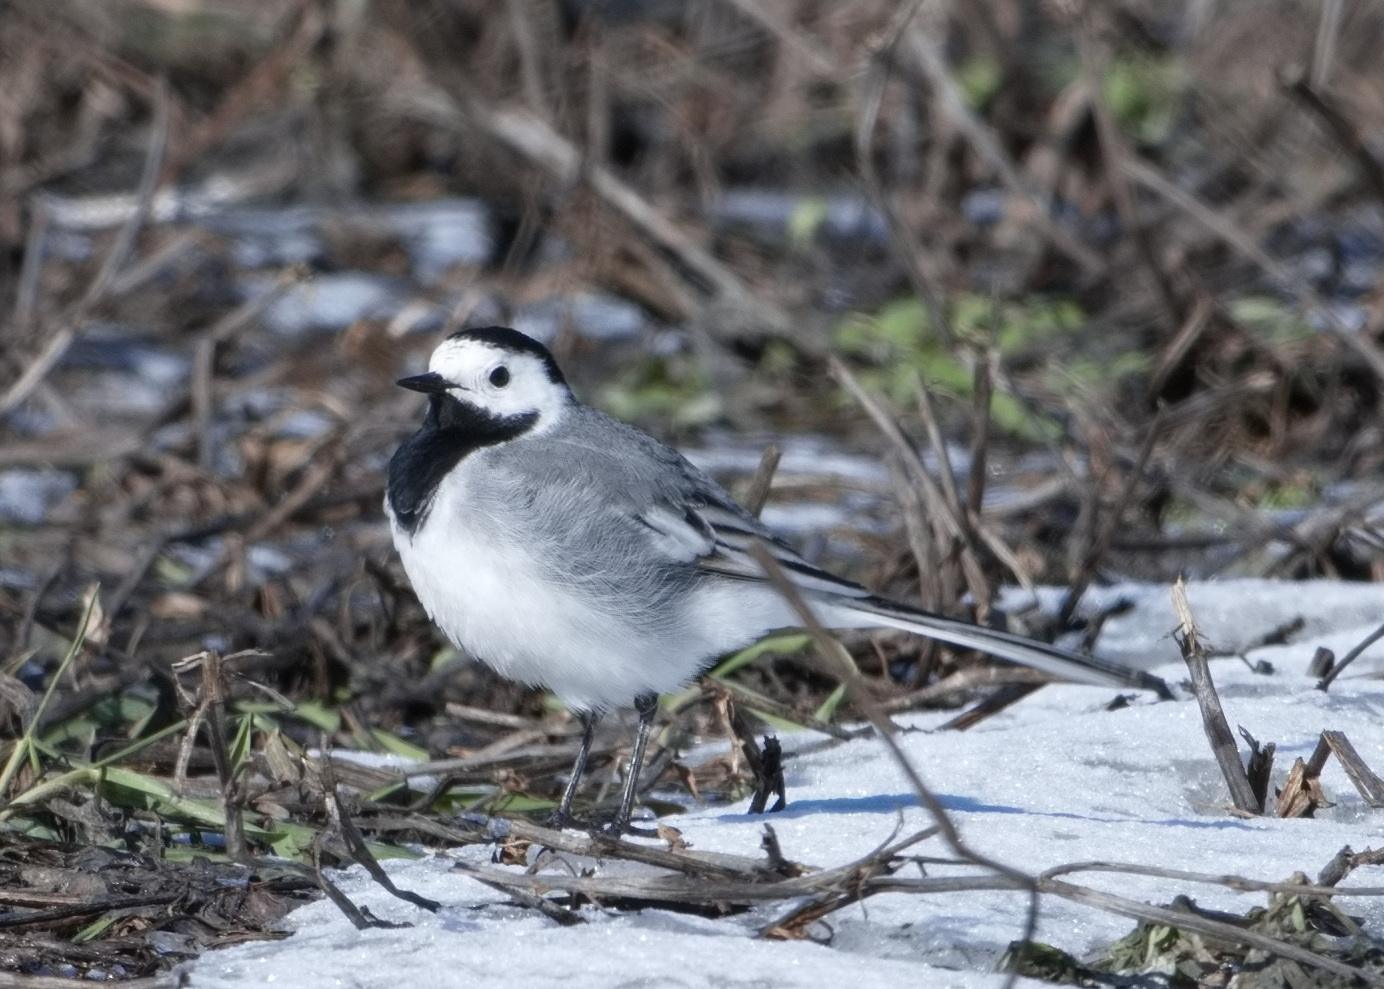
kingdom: Animalia
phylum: Chordata
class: Aves
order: Passeriformes
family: Motacillidae
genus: Motacilla
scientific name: Motacilla alba
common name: White wagtail
